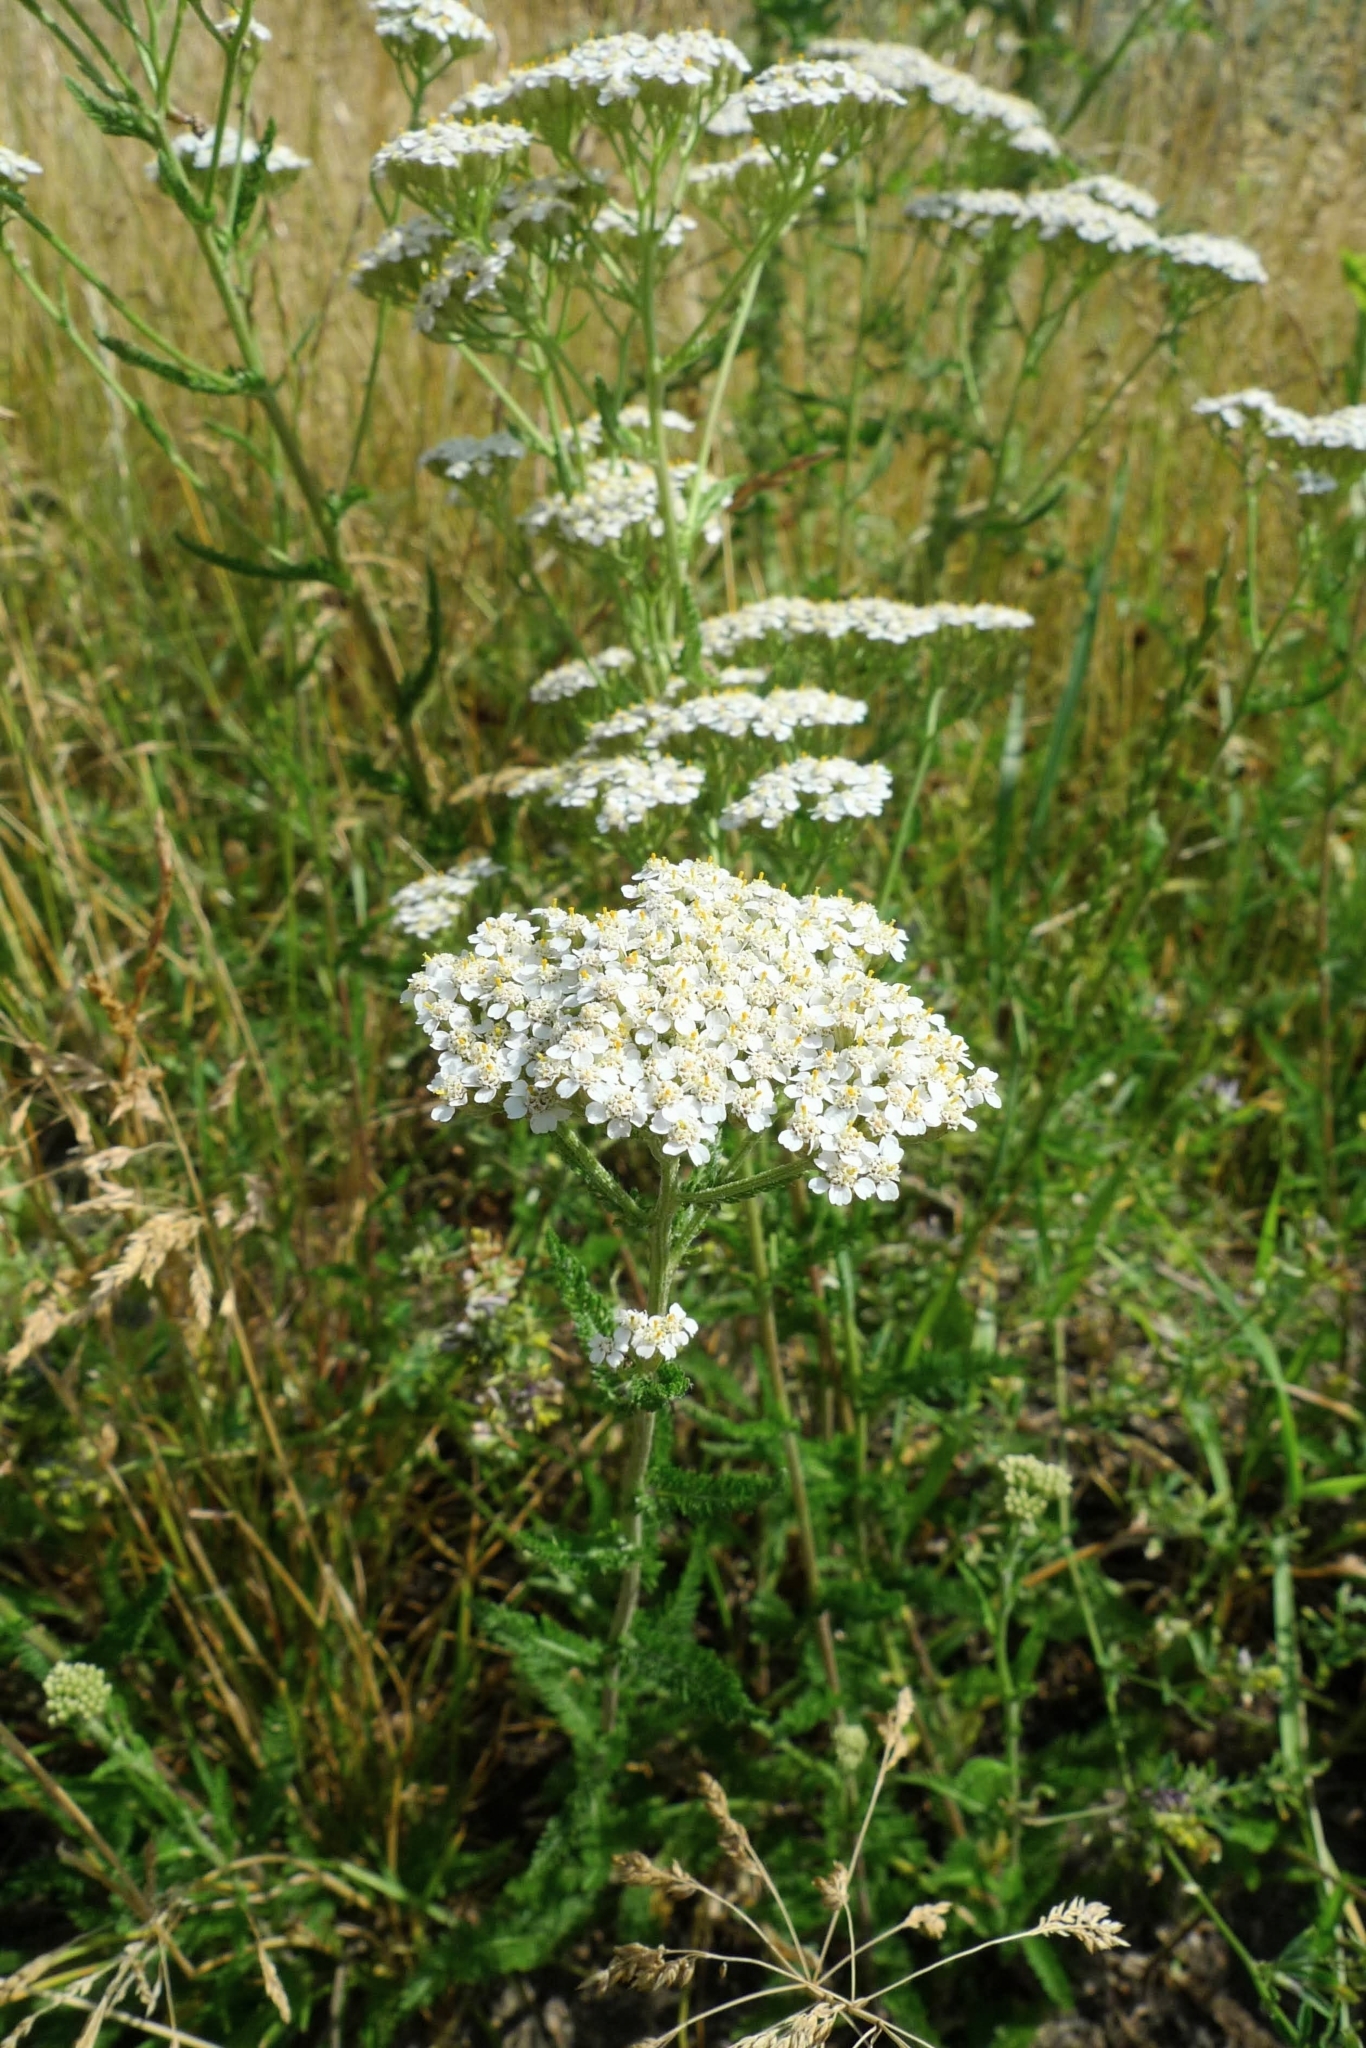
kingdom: Plantae
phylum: Tracheophyta
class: Magnoliopsida
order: Asterales
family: Asteraceae
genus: Achillea
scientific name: Achillea millefolium
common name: Yarrow
